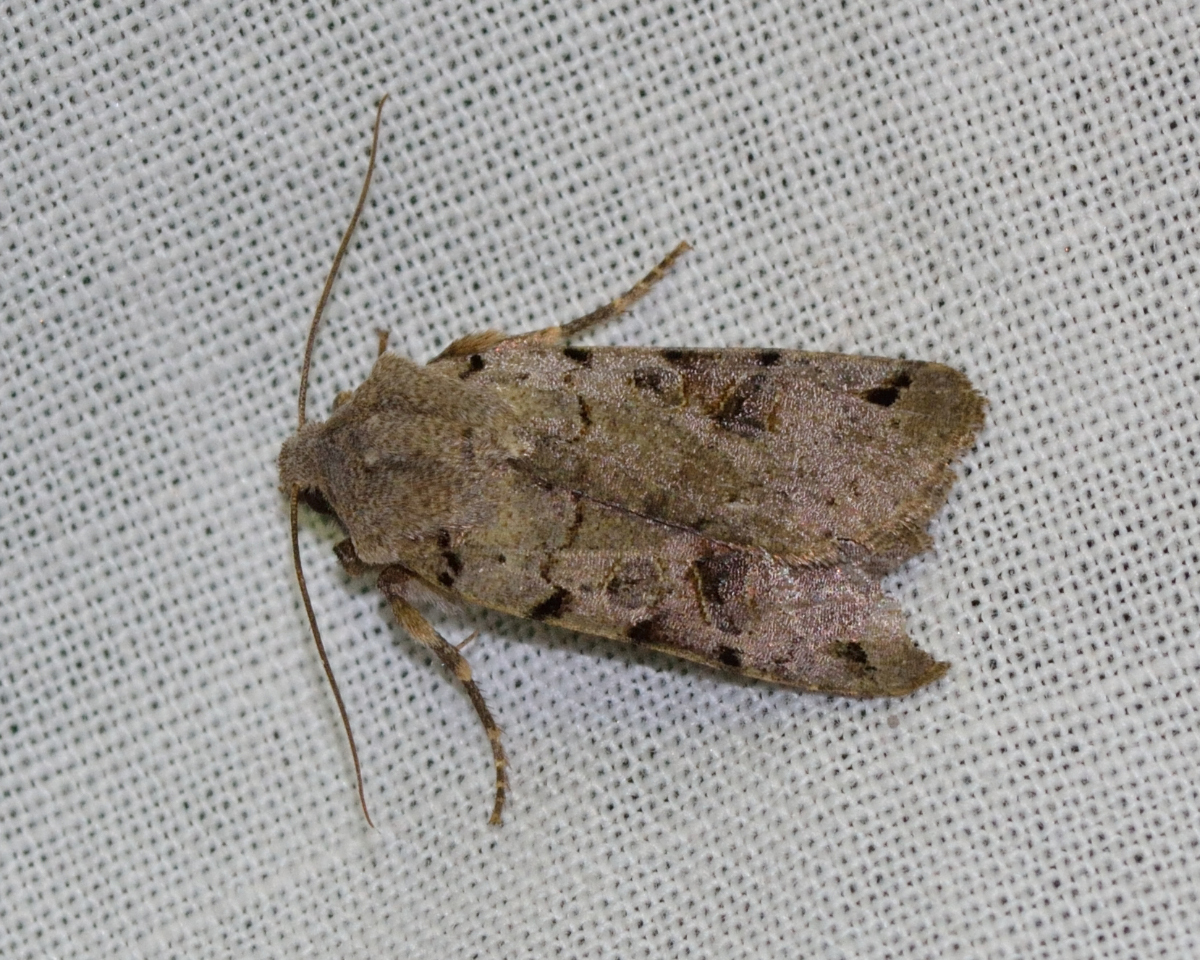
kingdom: Animalia
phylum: Arthropoda
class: Insecta
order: Lepidoptera
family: Noctuidae
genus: Agrochola
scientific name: Agrochola litura
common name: Brown-spot pinion
